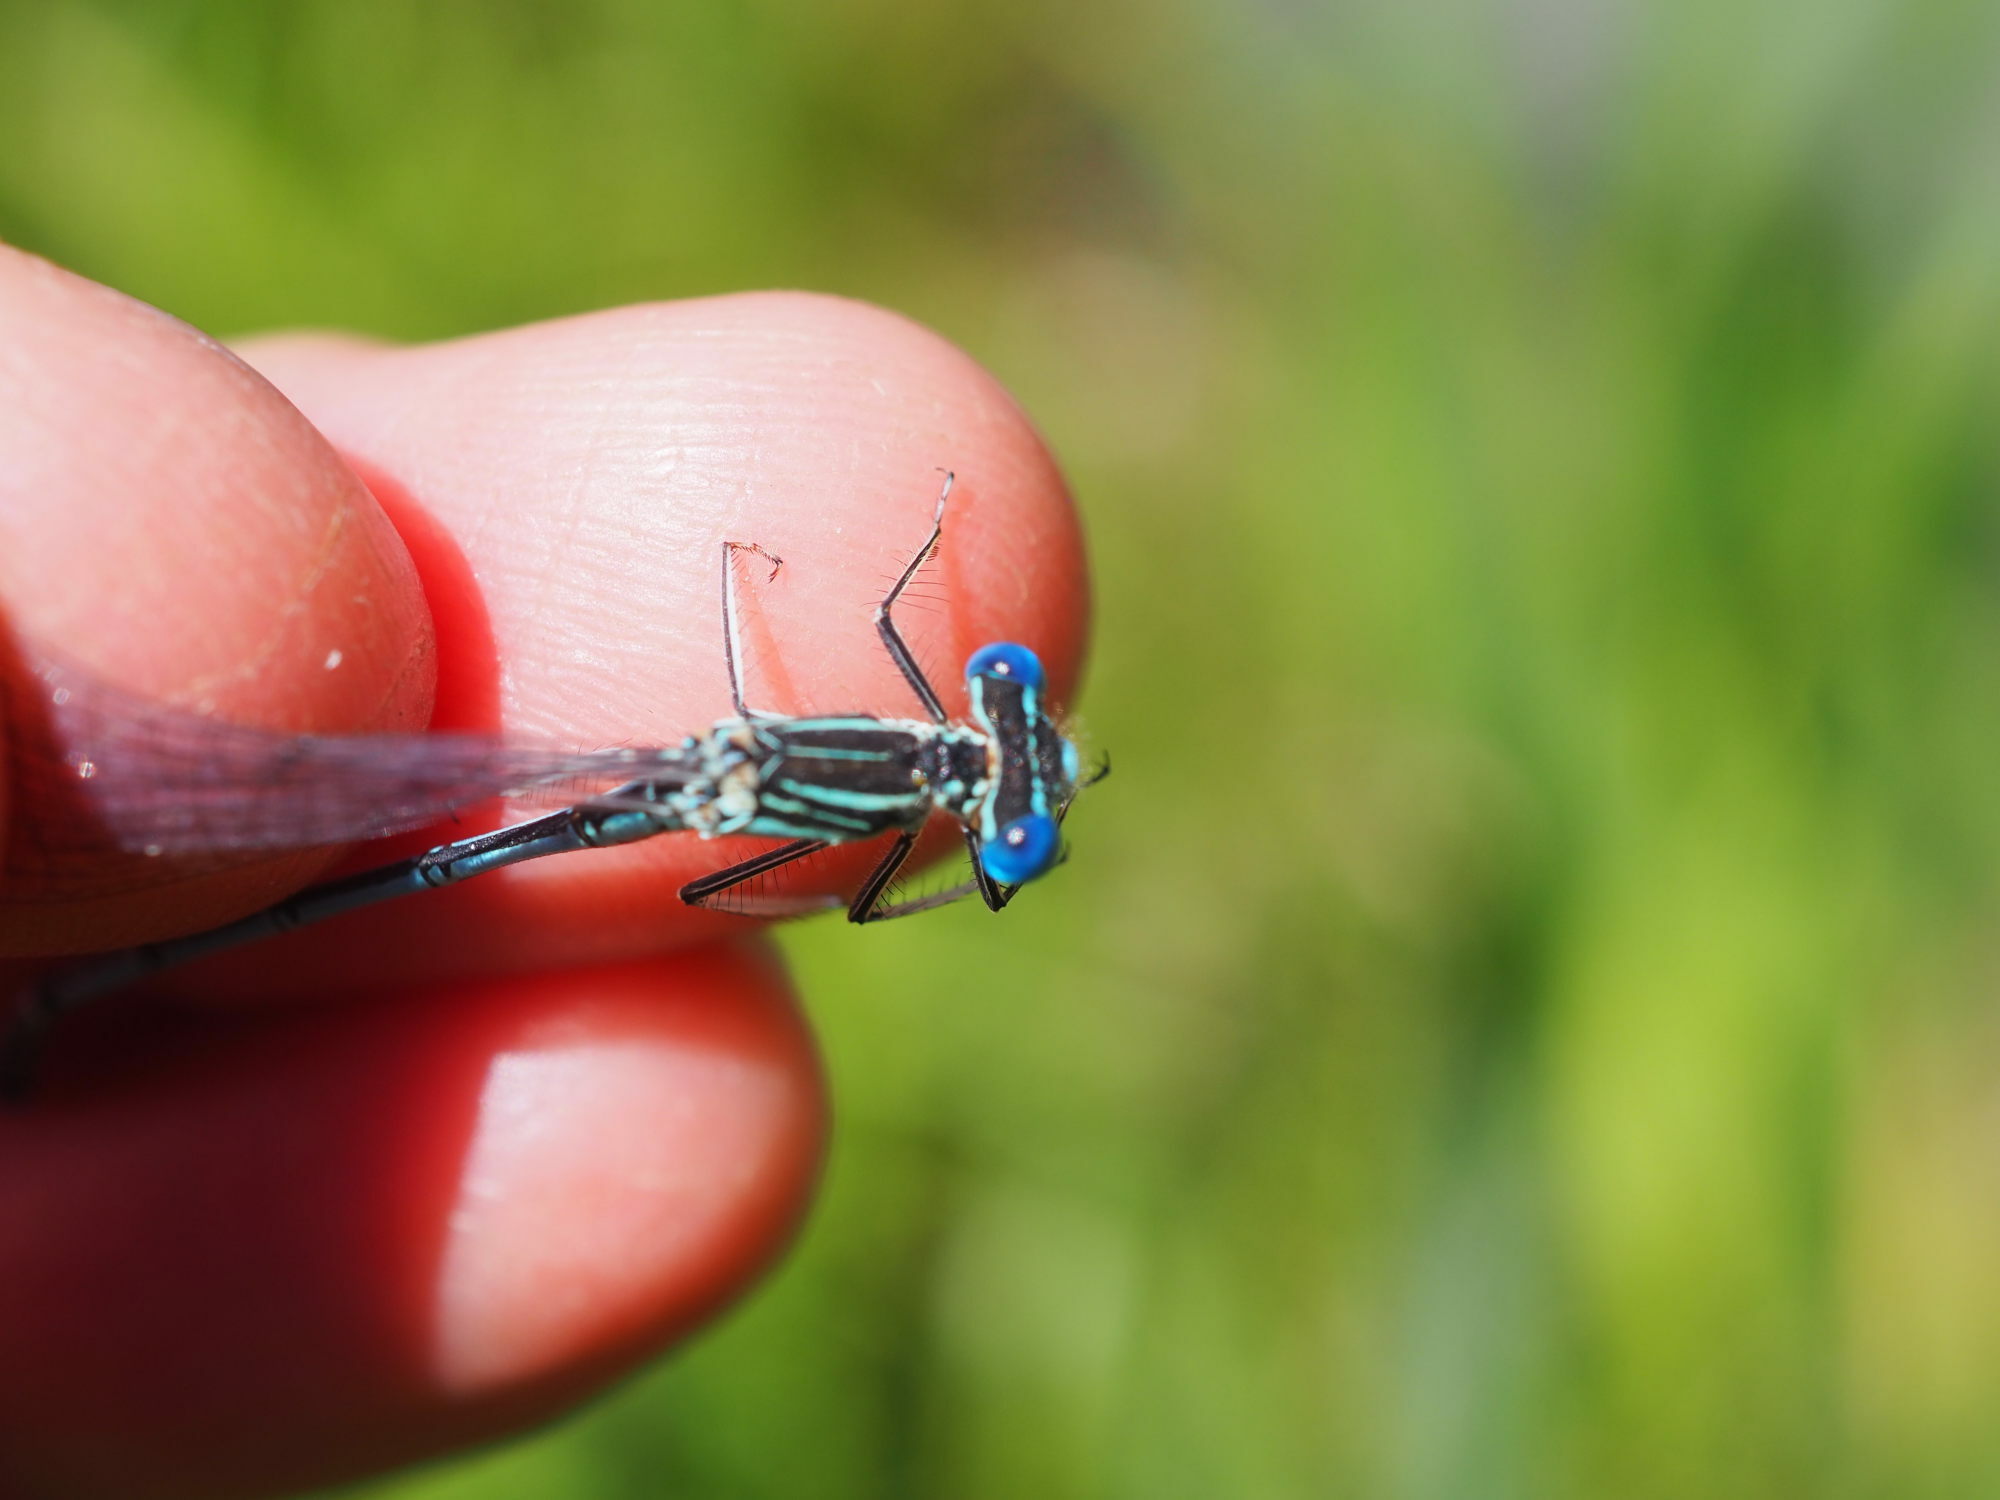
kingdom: Animalia
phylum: Arthropoda
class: Insecta
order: Odonata
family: Platycnemididae
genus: Platycnemis
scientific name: Platycnemis pennipes
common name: White-legged damselfly
